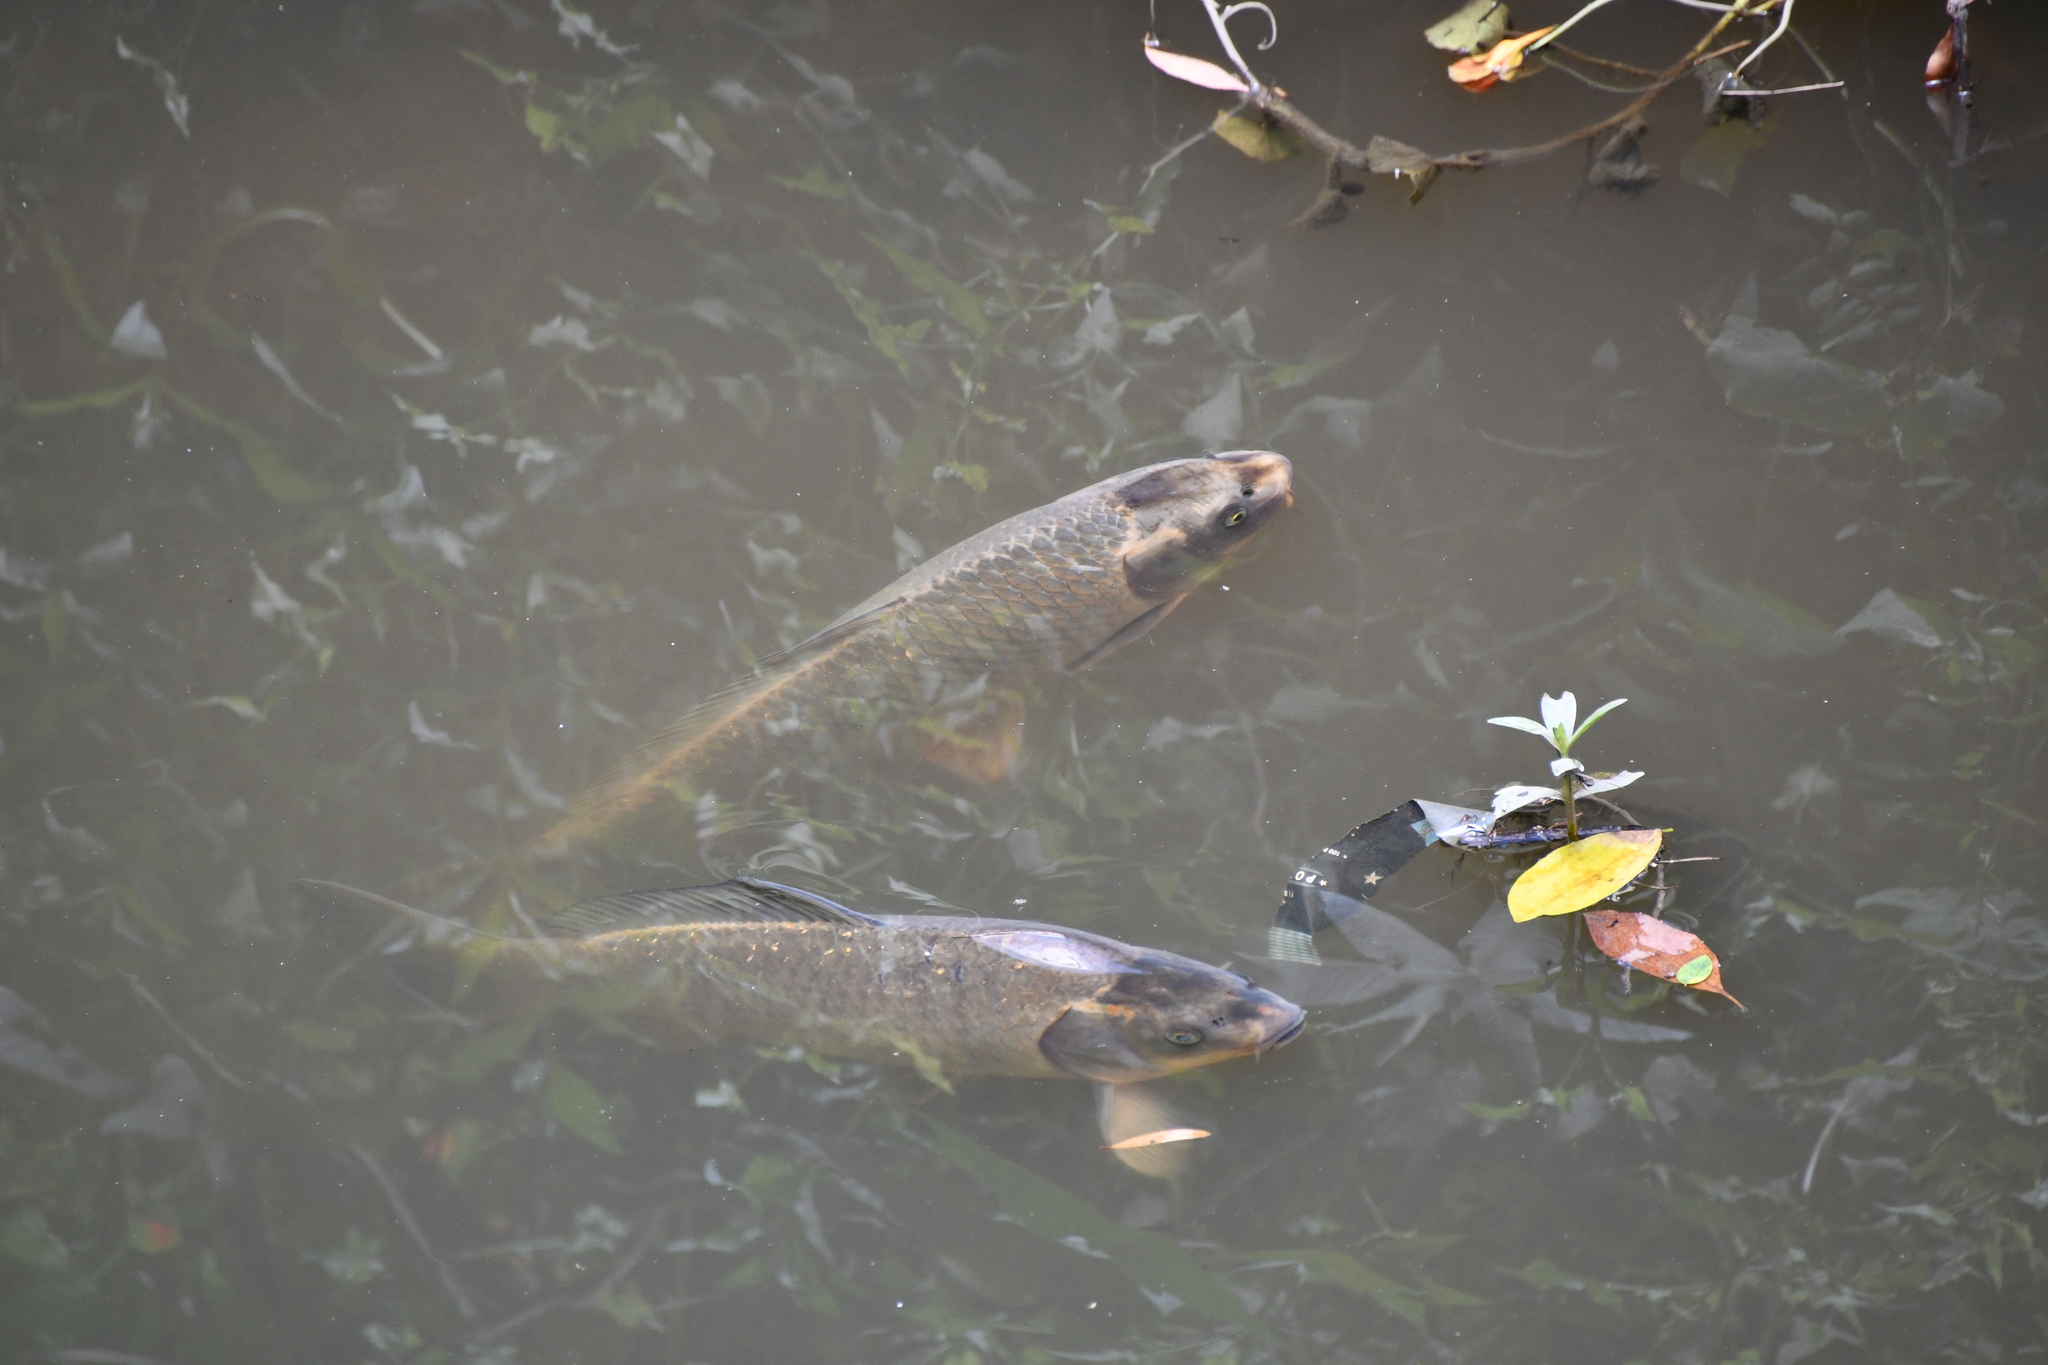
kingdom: Animalia
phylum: Chordata
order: Cypriniformes
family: Cyprinidae
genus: Cyprinus
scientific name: Cyprinus carpio
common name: Common carp
